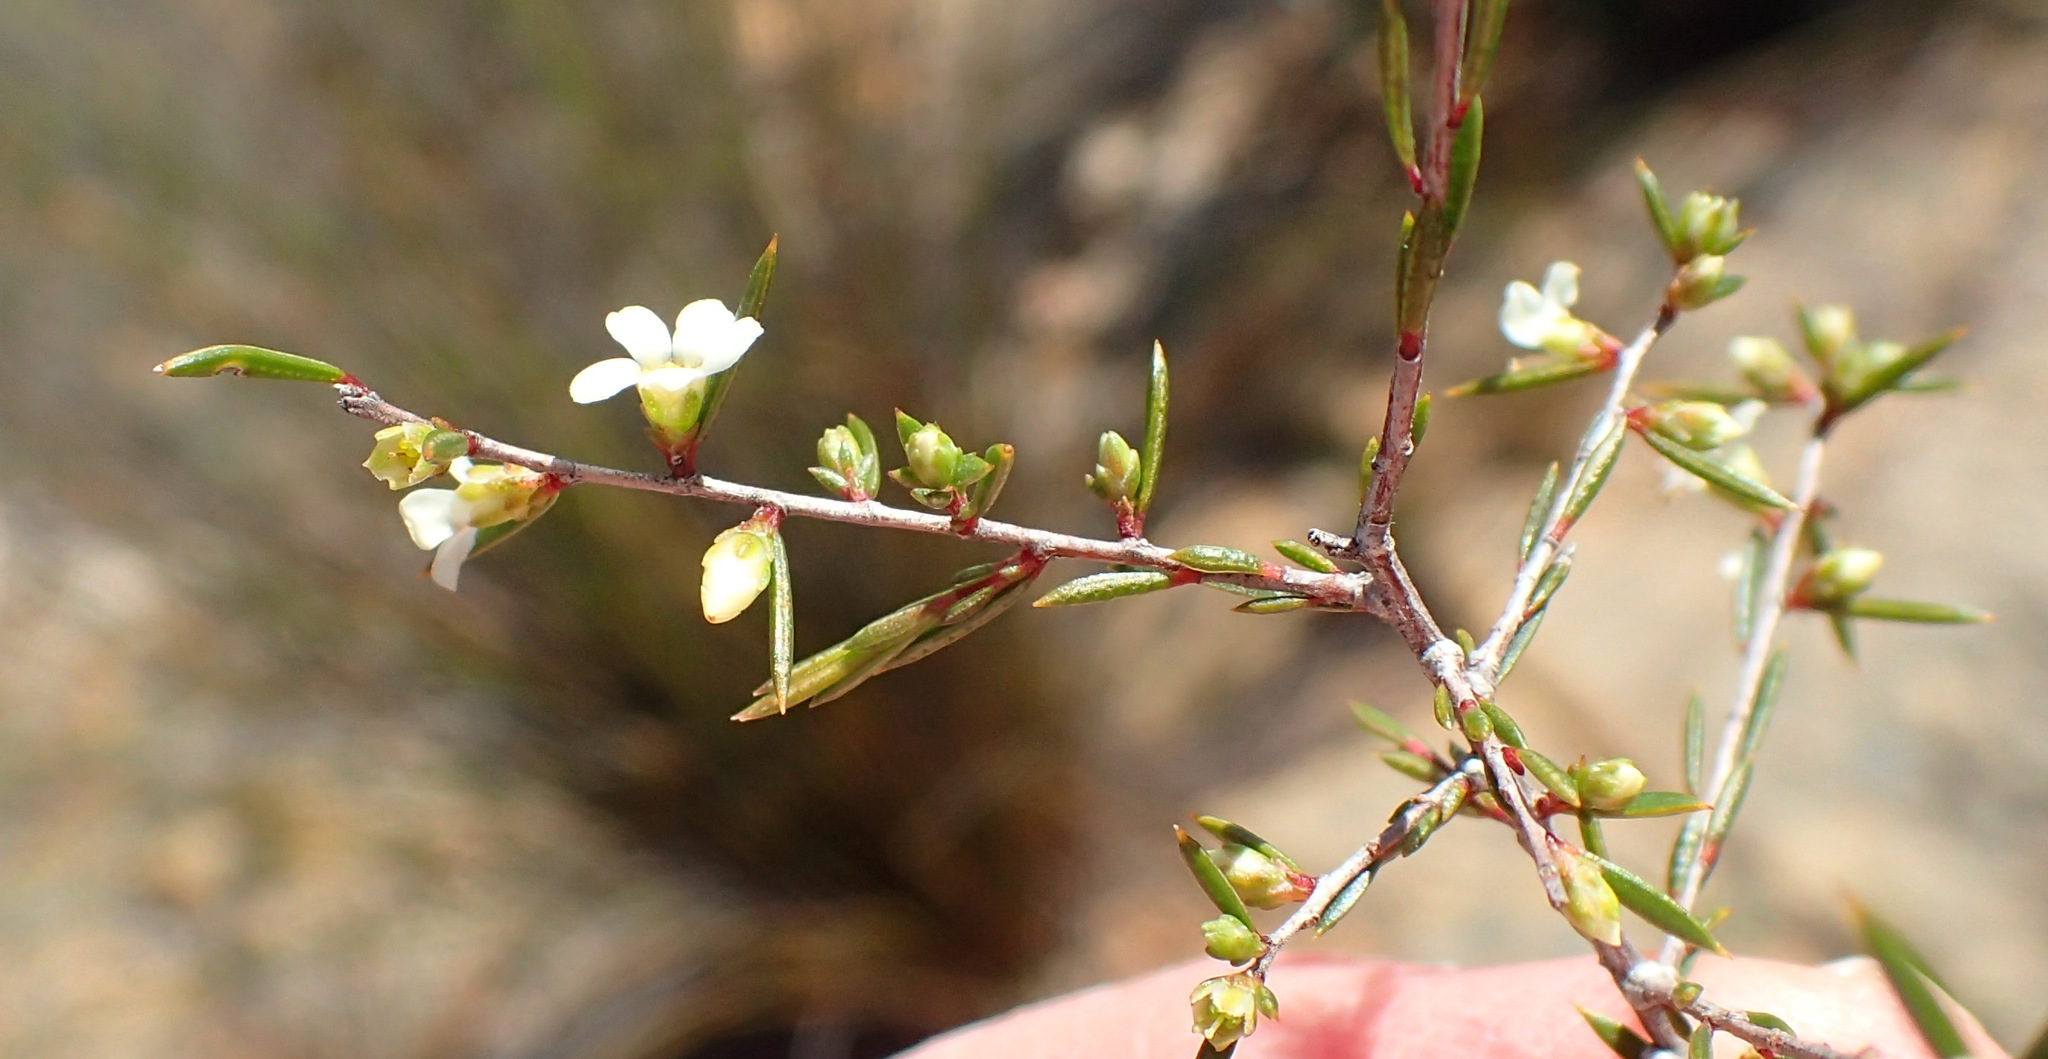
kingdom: Plantae
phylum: Tracheophyta
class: Magnoliopsida
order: Sapindales
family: Rutaceae
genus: Coleonema
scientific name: Coleonema juniperinum
